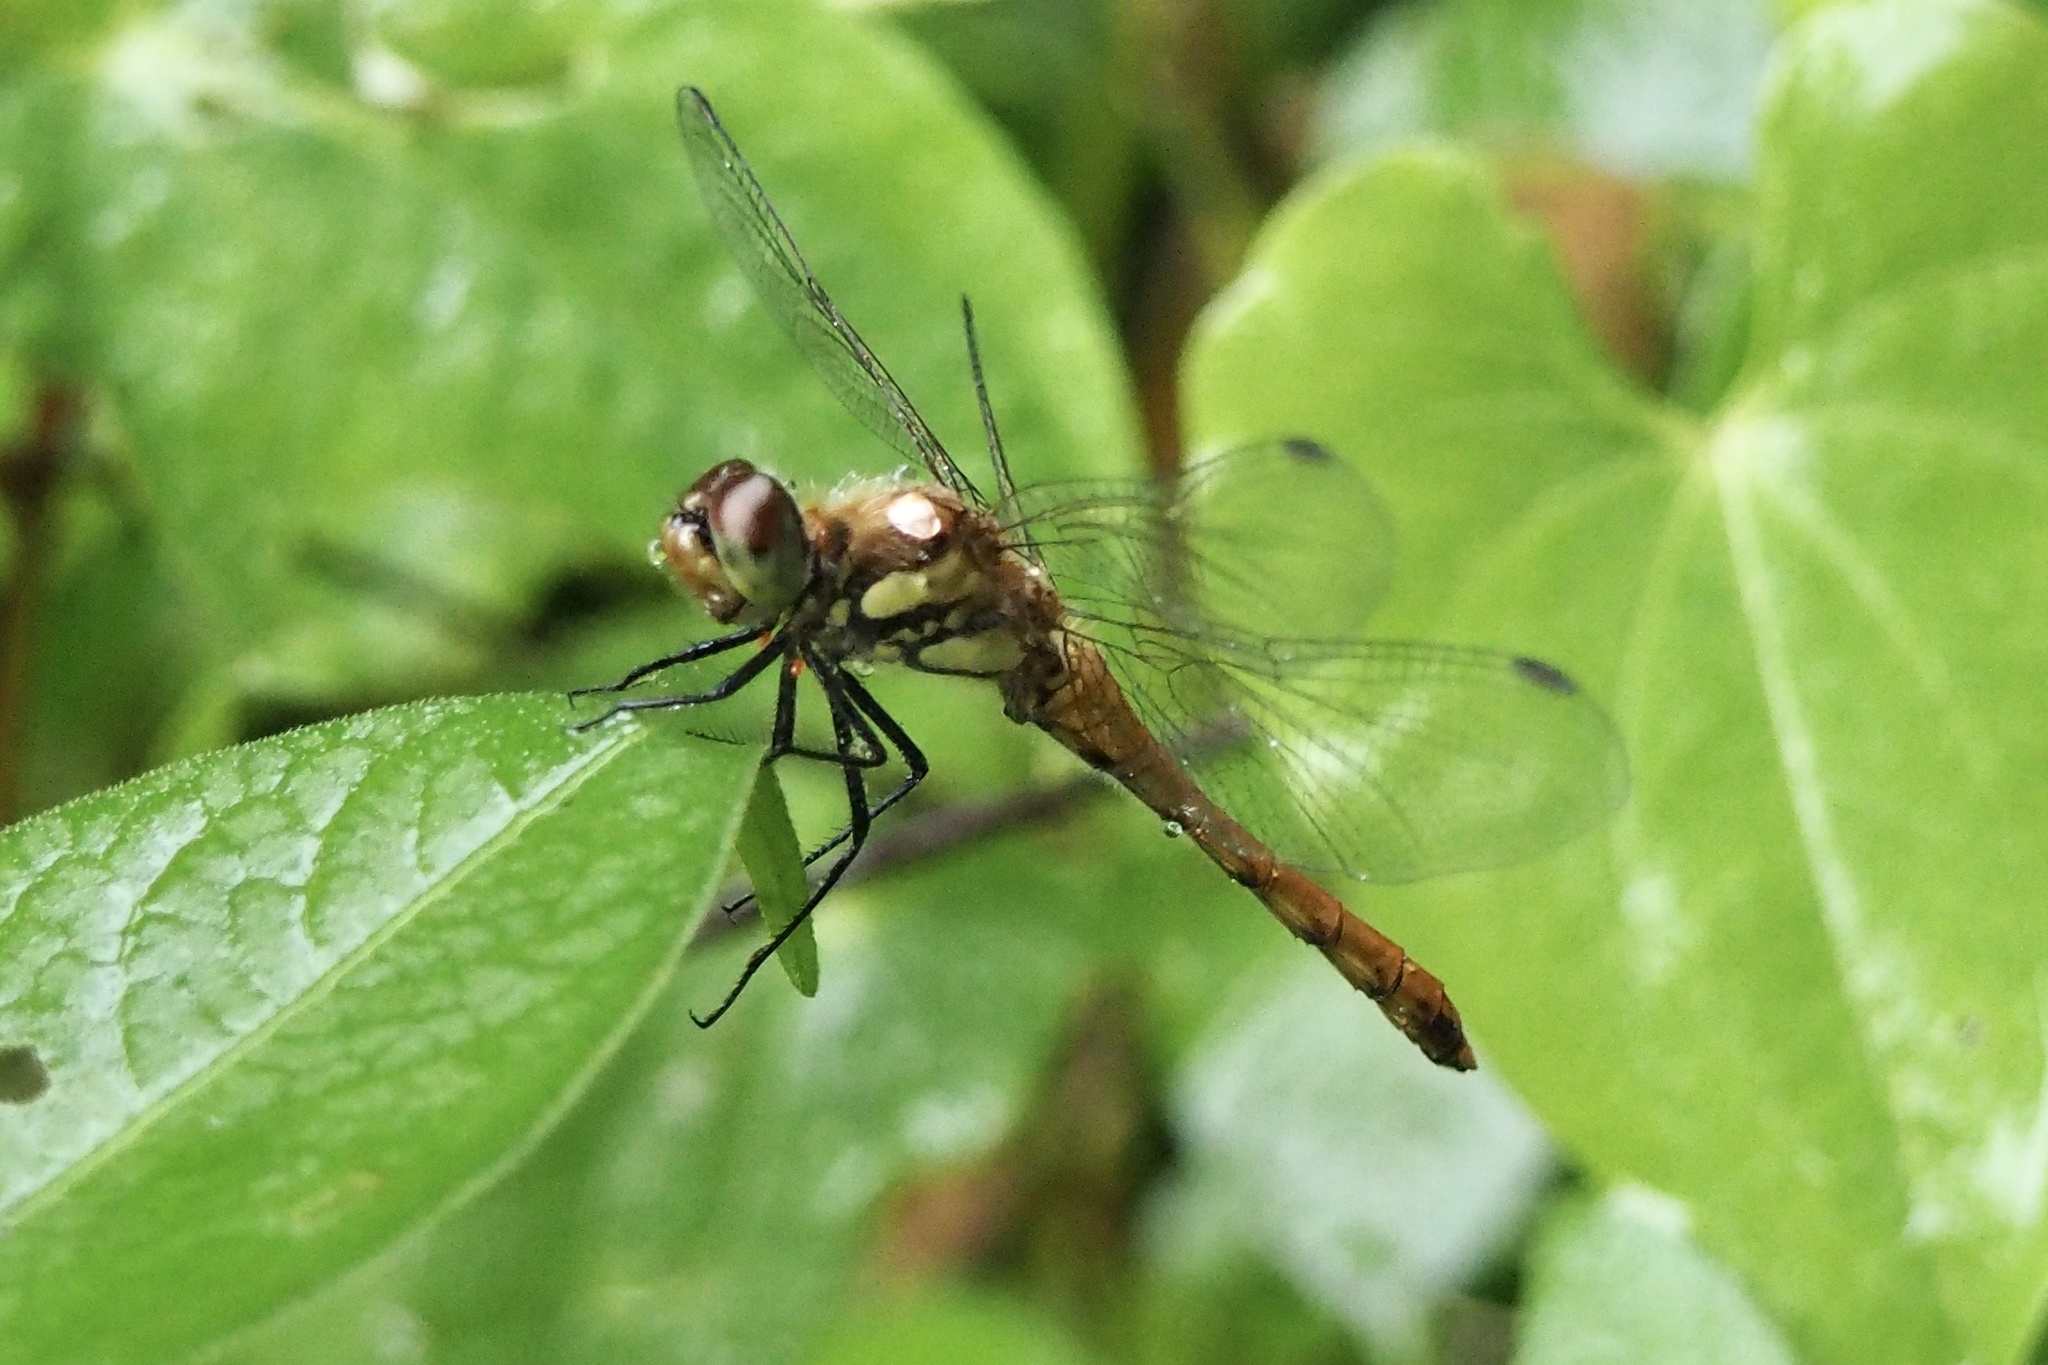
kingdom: Animalia
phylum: Arthropoda
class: Insecta
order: Odonata
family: Libellulidae
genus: Sympetrum
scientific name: Sympetrum frequens
